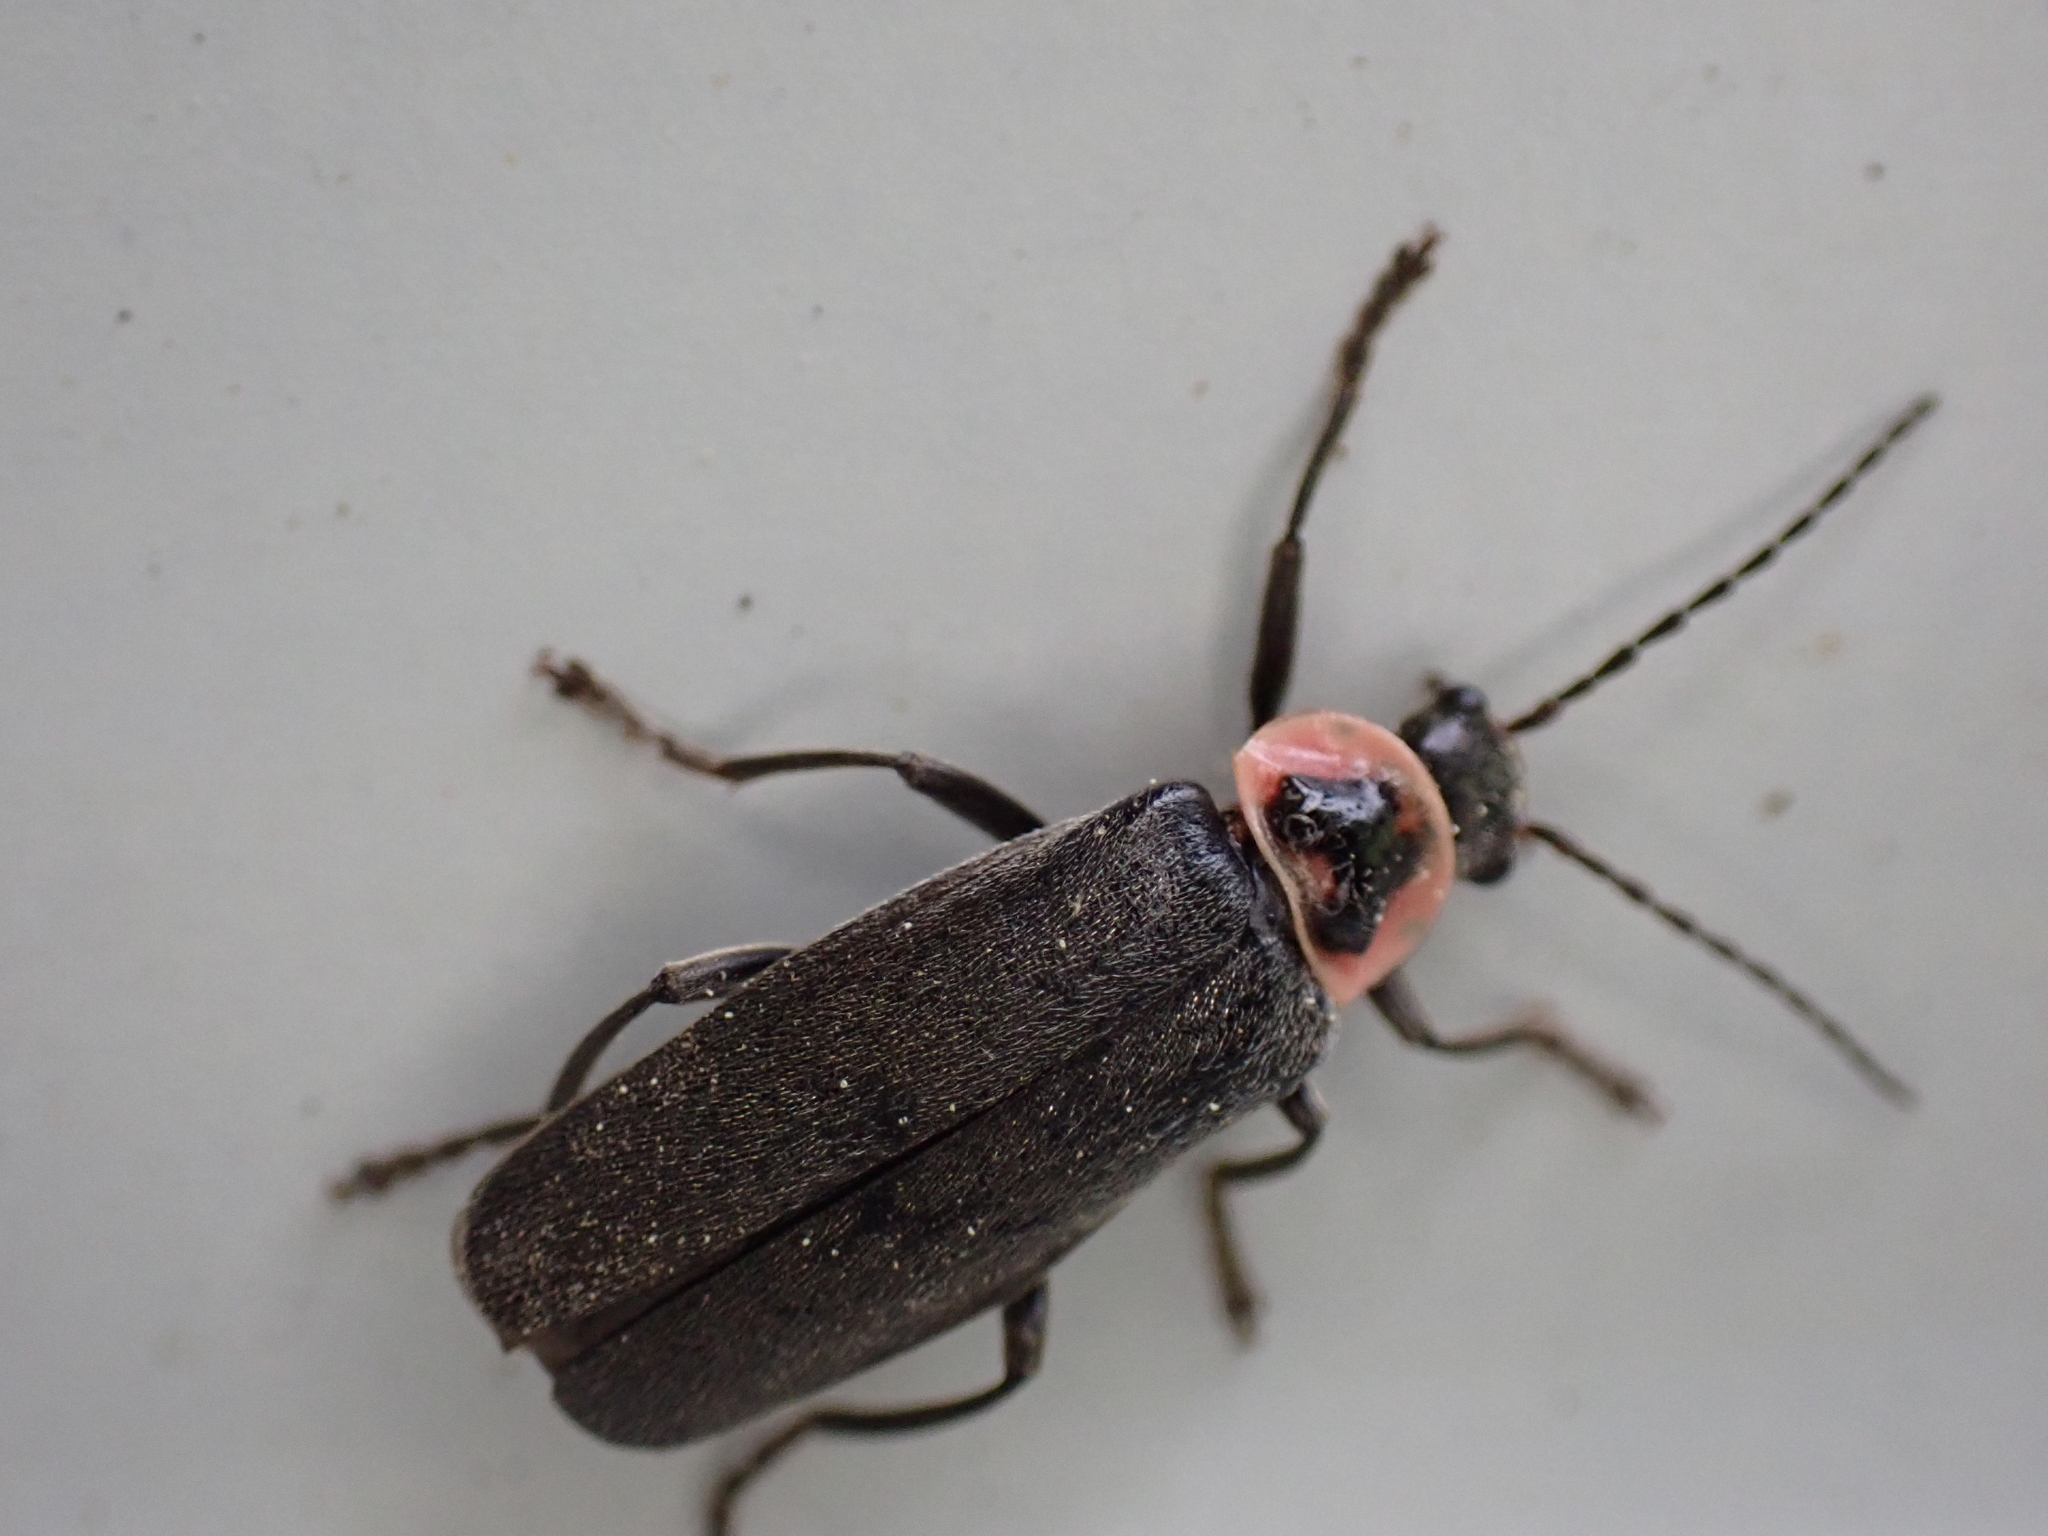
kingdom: Animalia
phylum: Arthropoda
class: Insecta
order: Coleoptera
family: Cantharidae
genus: Atalantycha
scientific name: Atalantycha neglecta
